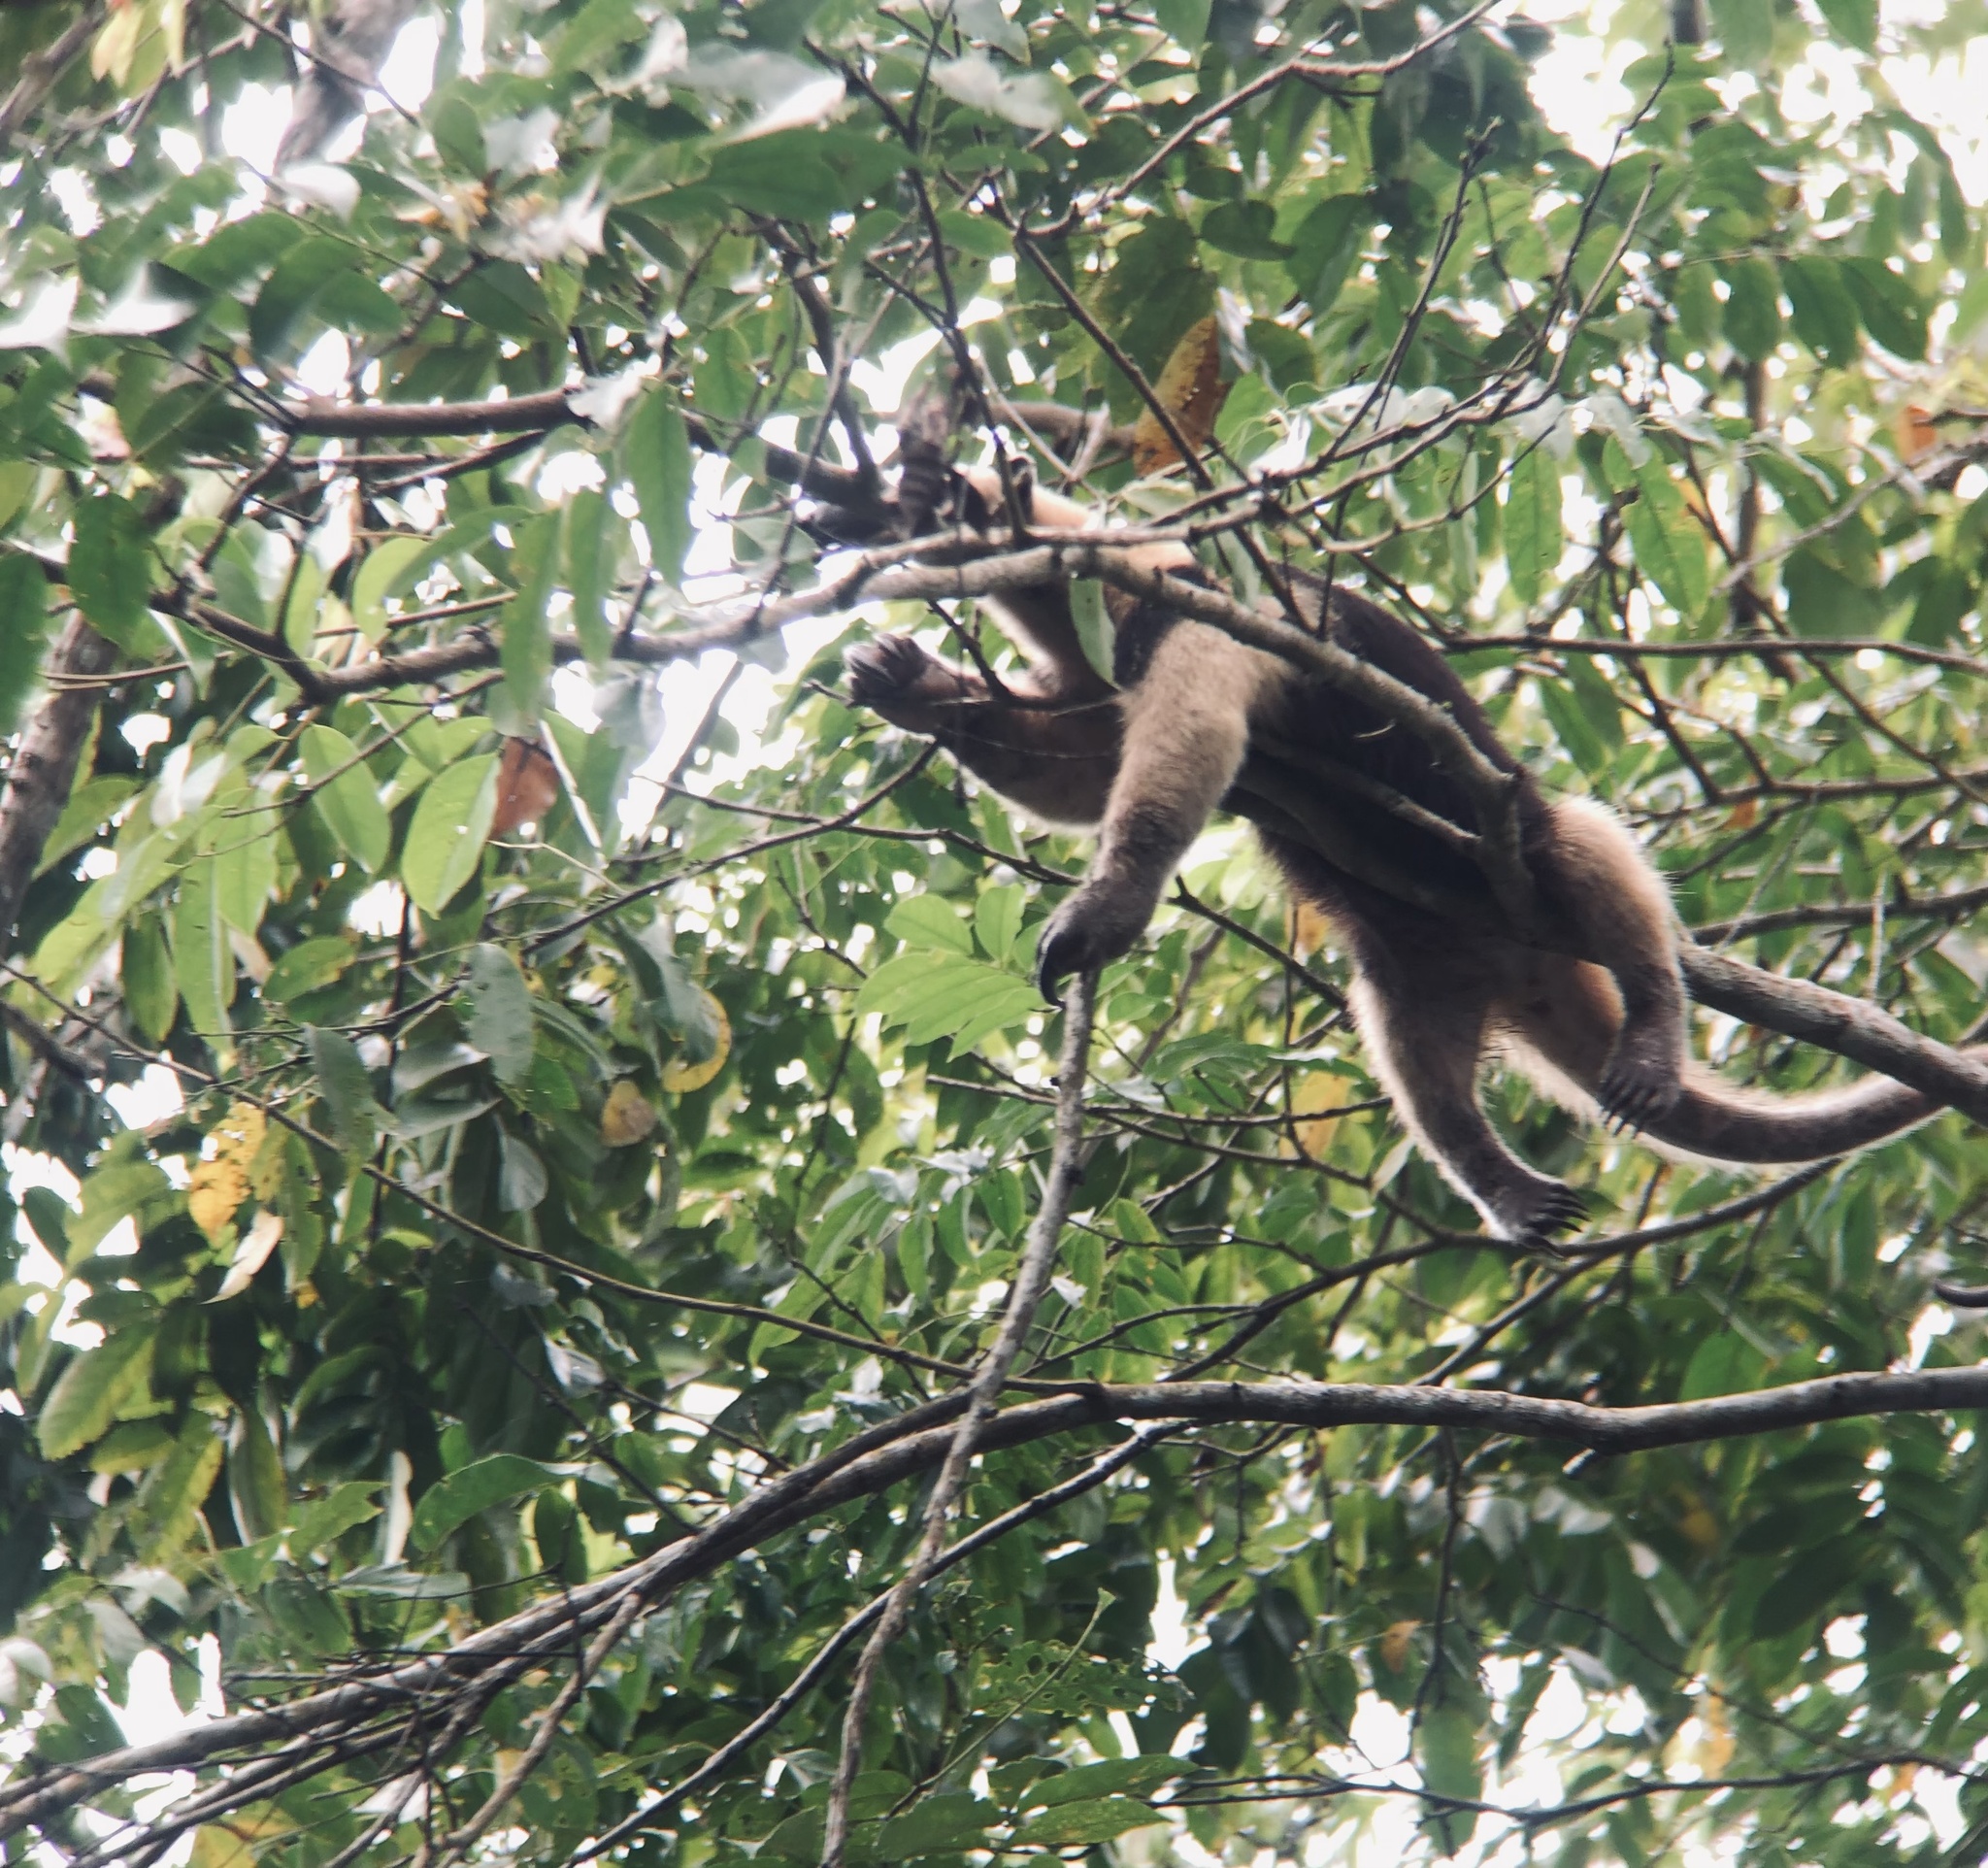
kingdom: Animalia
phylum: Chordata
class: Mammalia
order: Pilosa
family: Myrmecophagidae
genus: Tamandua
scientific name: Tamandua mexicana
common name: Northern tamandua
